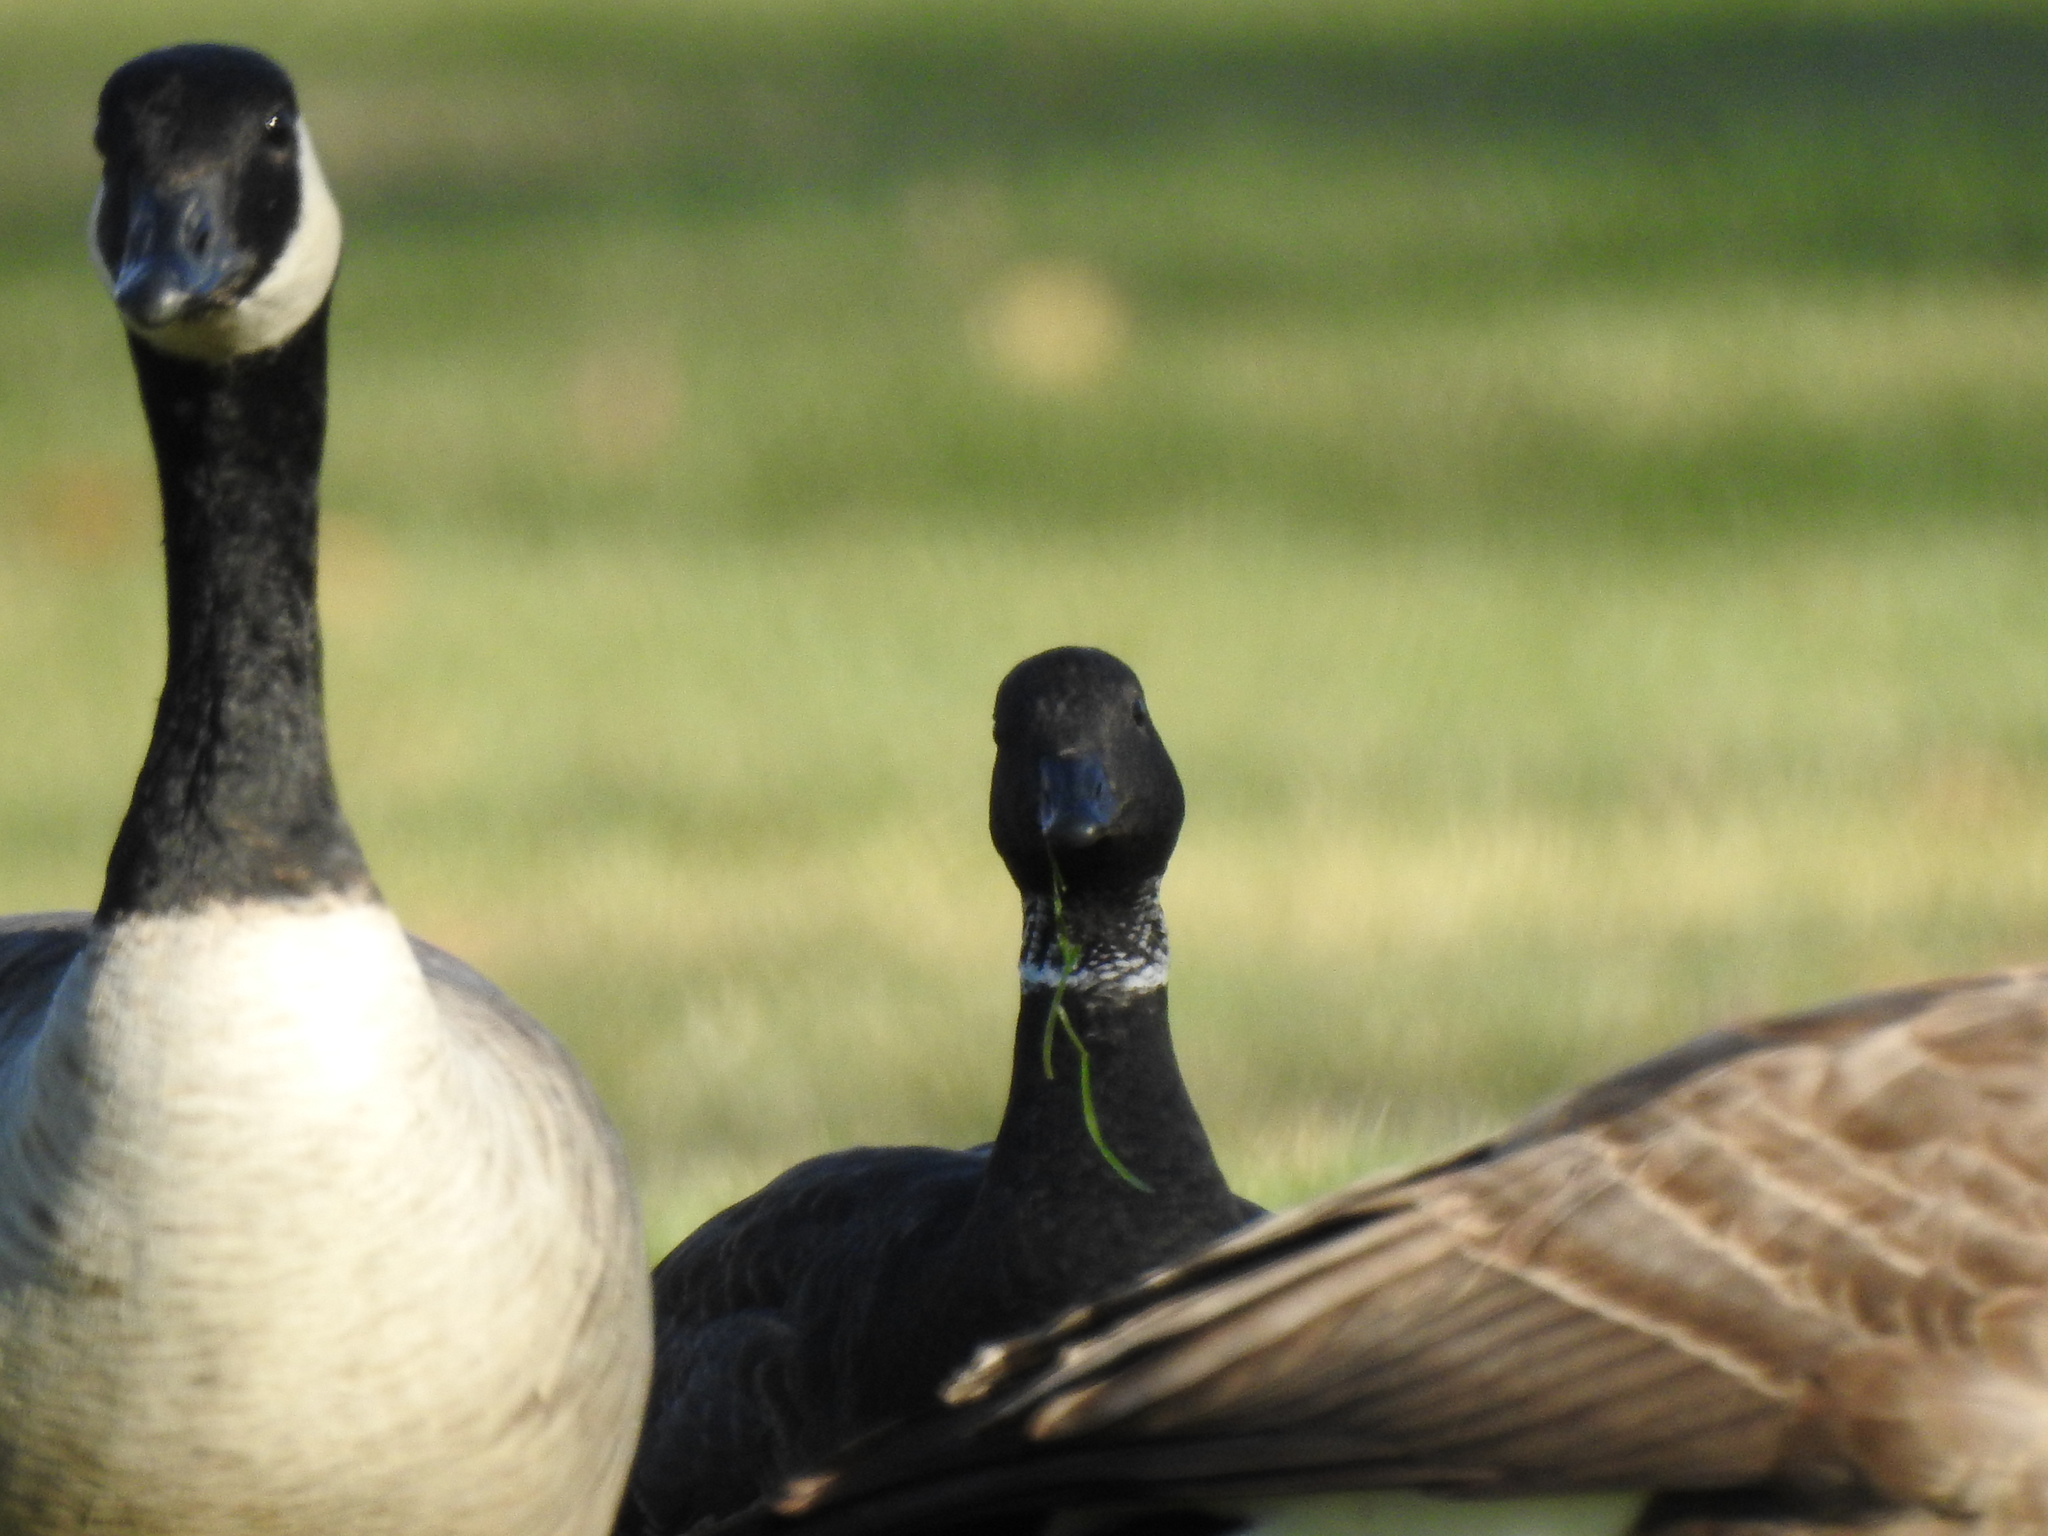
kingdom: Animalia
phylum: Chordata
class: Aves
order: Anseriformes
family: Anatidae
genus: Branta
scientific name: Branta canadensis
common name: Canada goose
